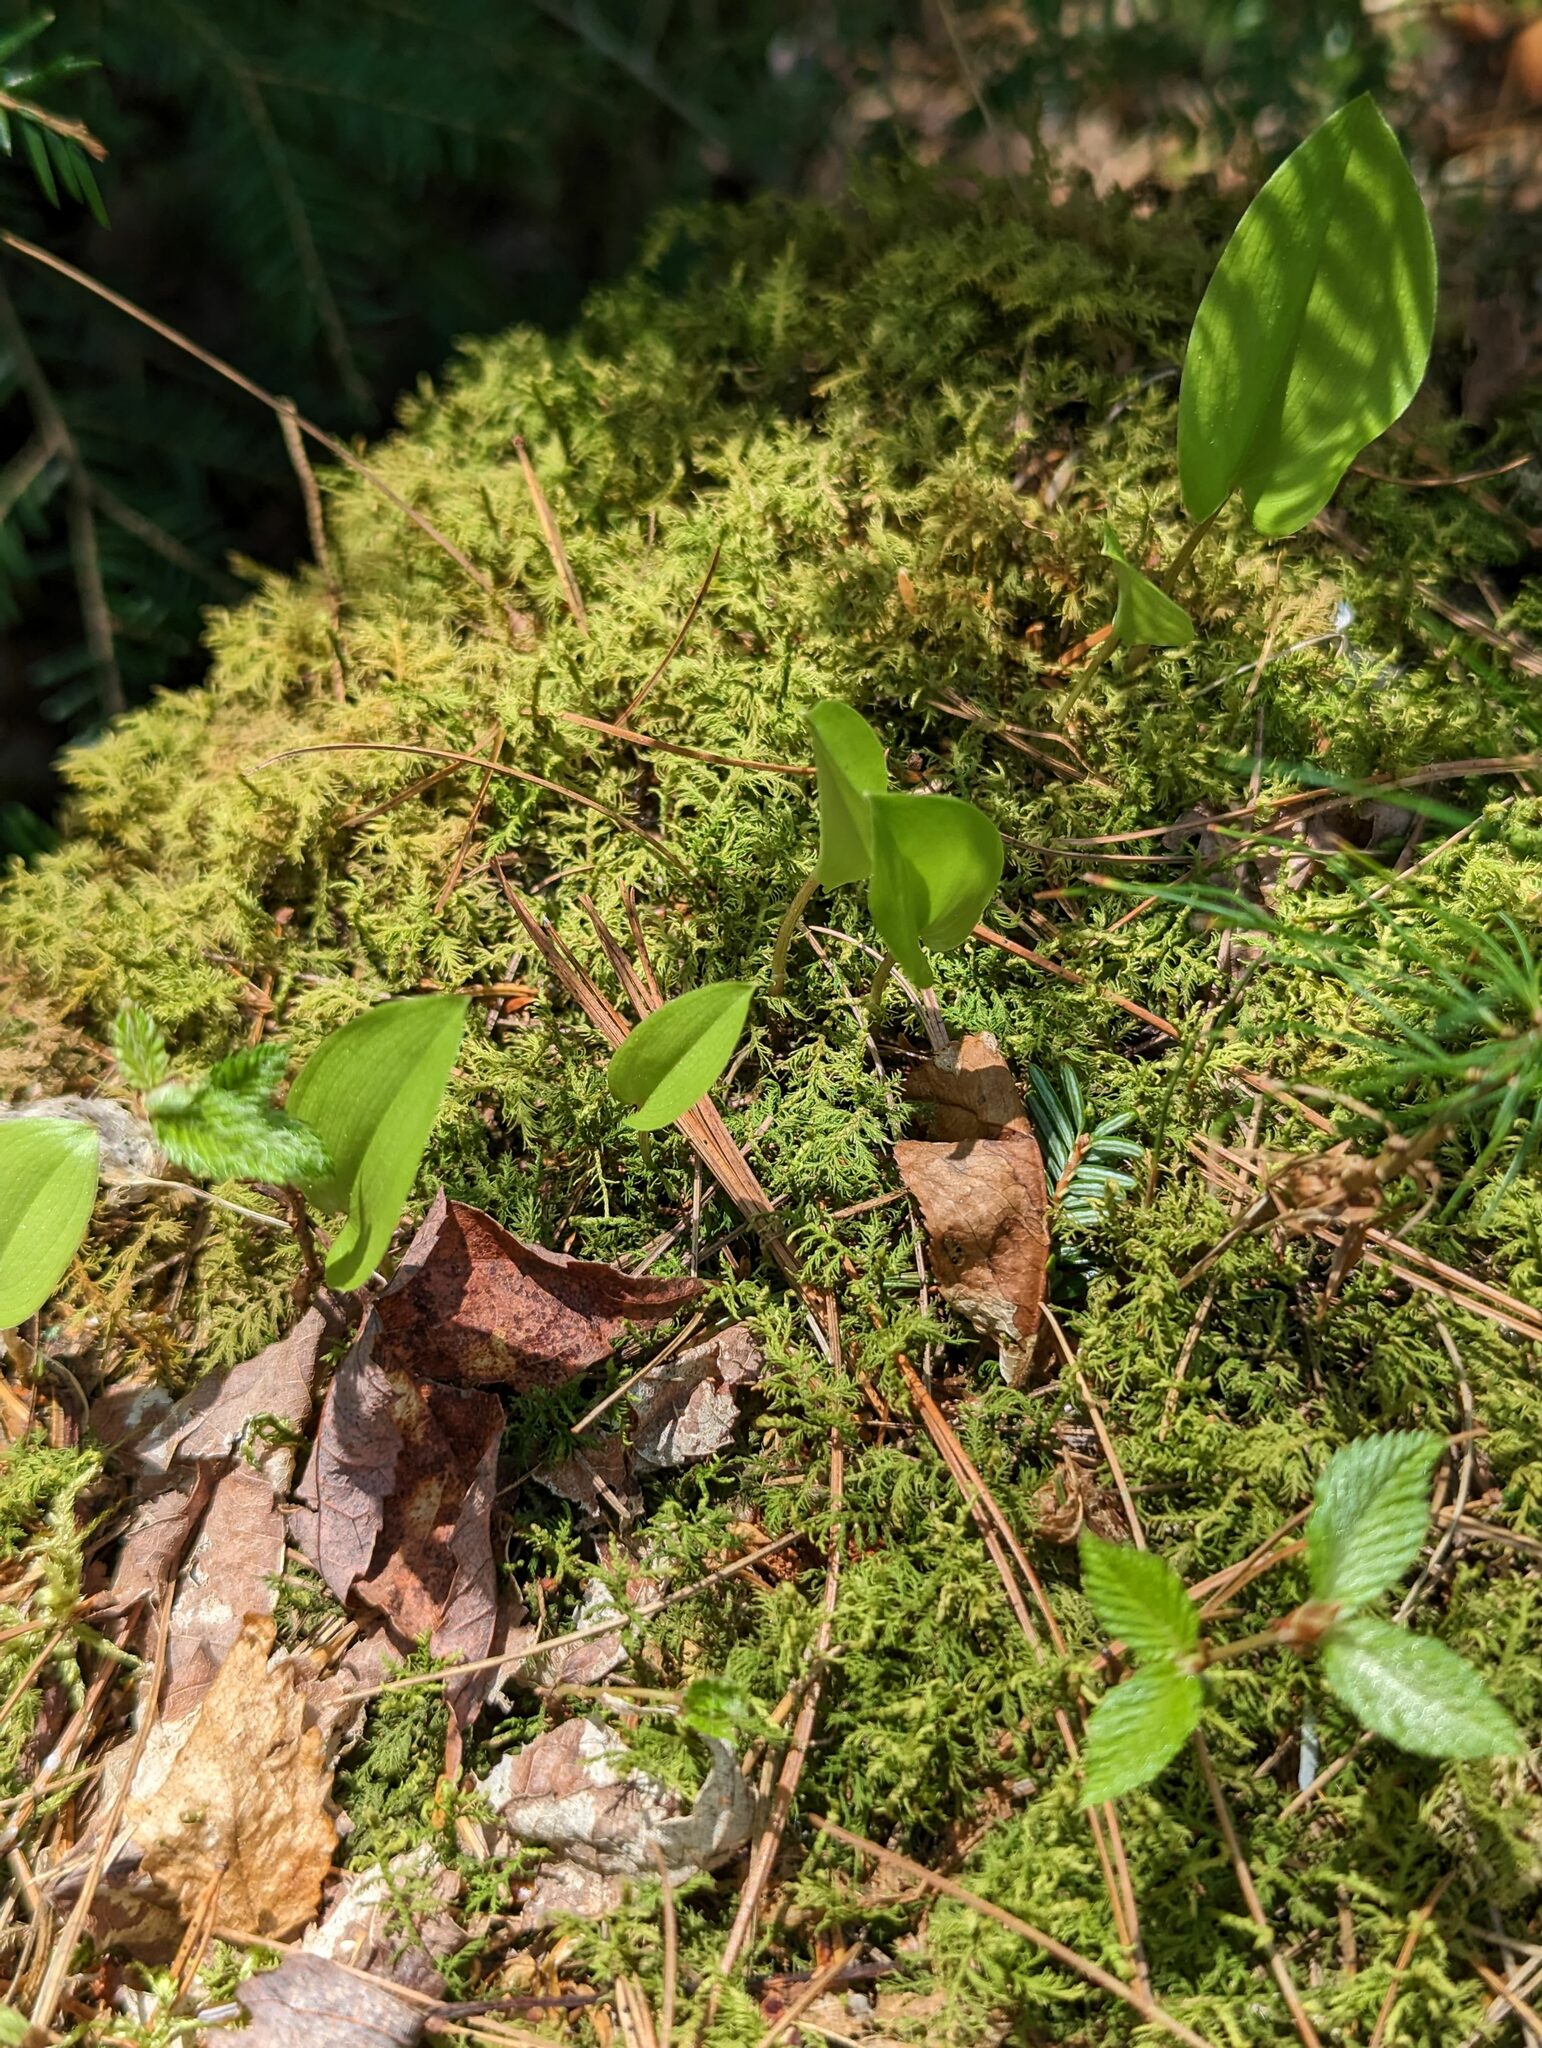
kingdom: Plantae
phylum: Tracheophyta
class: Liliopsida
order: Asparagales
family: Asparagaceae
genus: Maianthemum
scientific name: Maianthemum canadense
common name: False lily-of-the-valley
